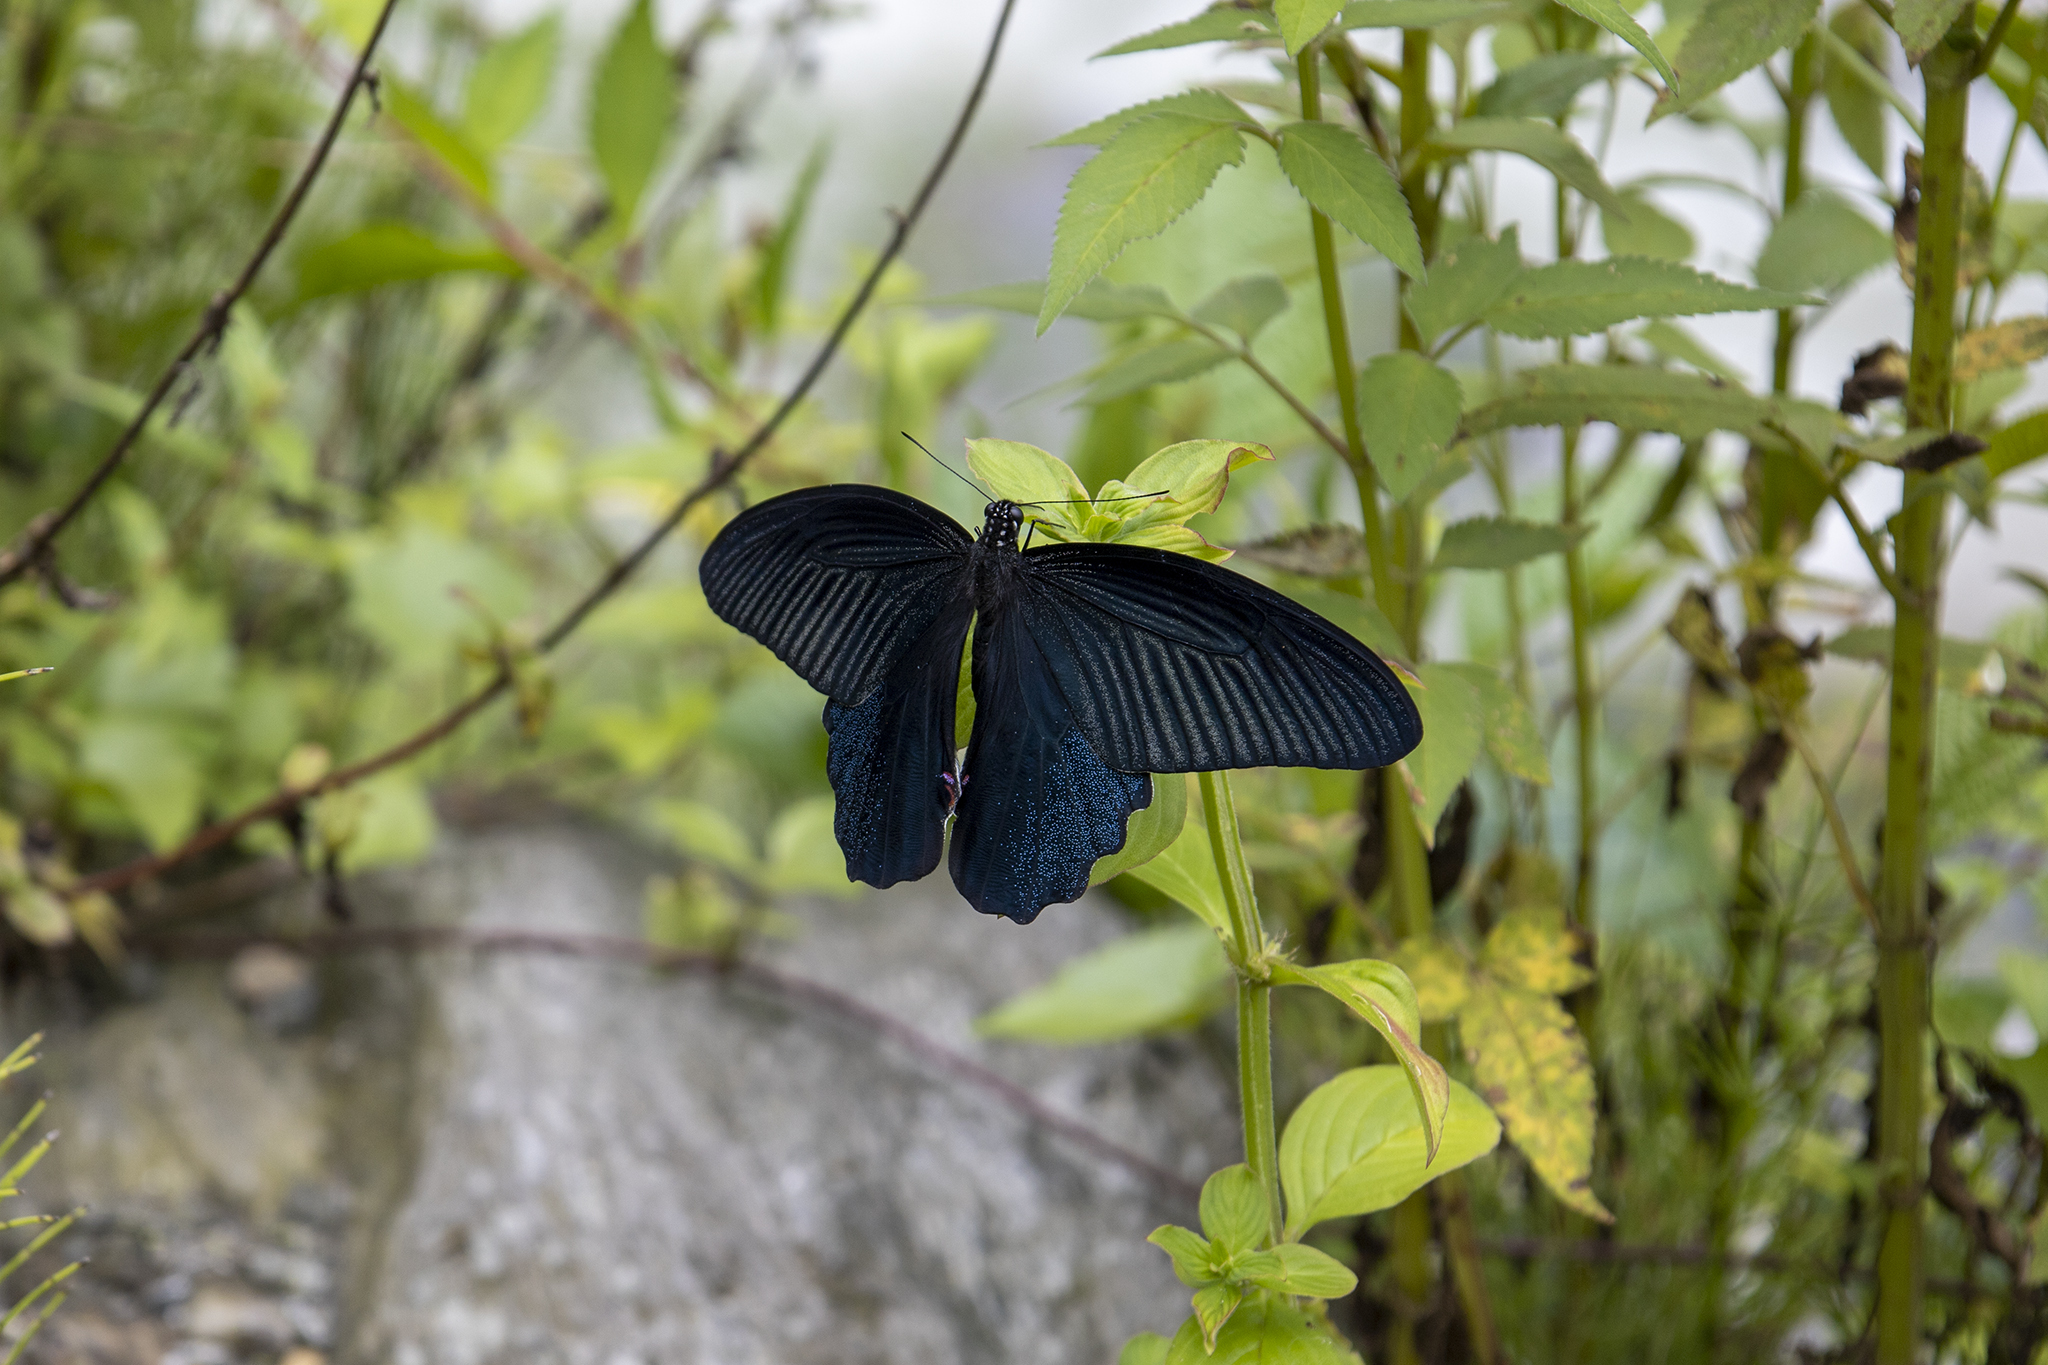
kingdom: Animalia
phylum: Arthropoda
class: Insecta
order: Lepidoptera
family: Papilionidae
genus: Papilio
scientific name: Papilio protenor
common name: Spangle
